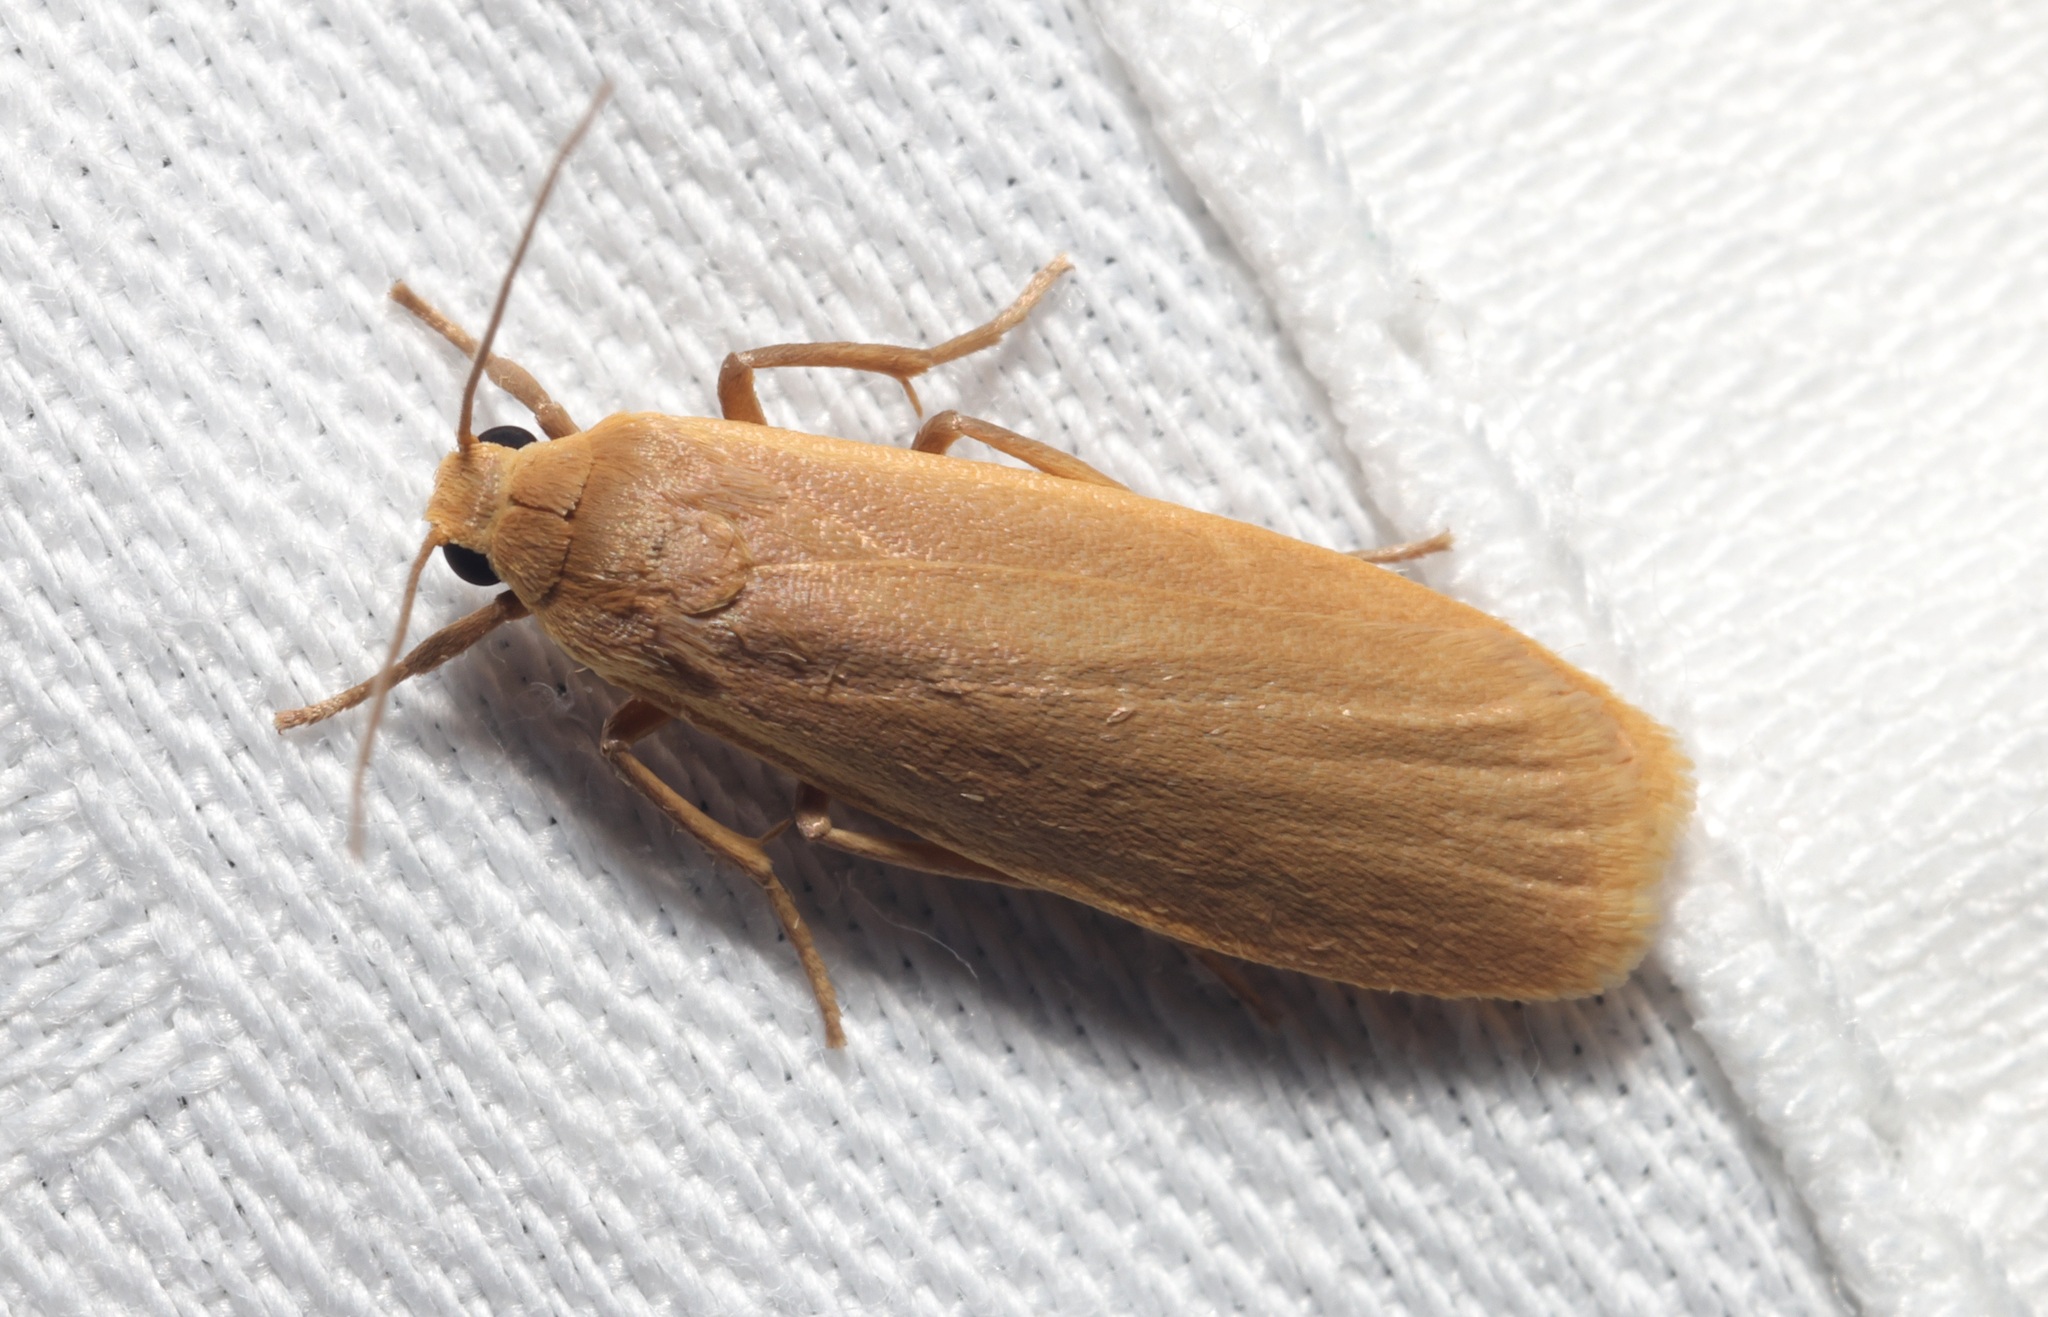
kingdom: Animalia
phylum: Arthropoda
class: Insecta
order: Lepidoptera
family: Erebidae
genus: Danielithosia
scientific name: Danielithosia immaculata
